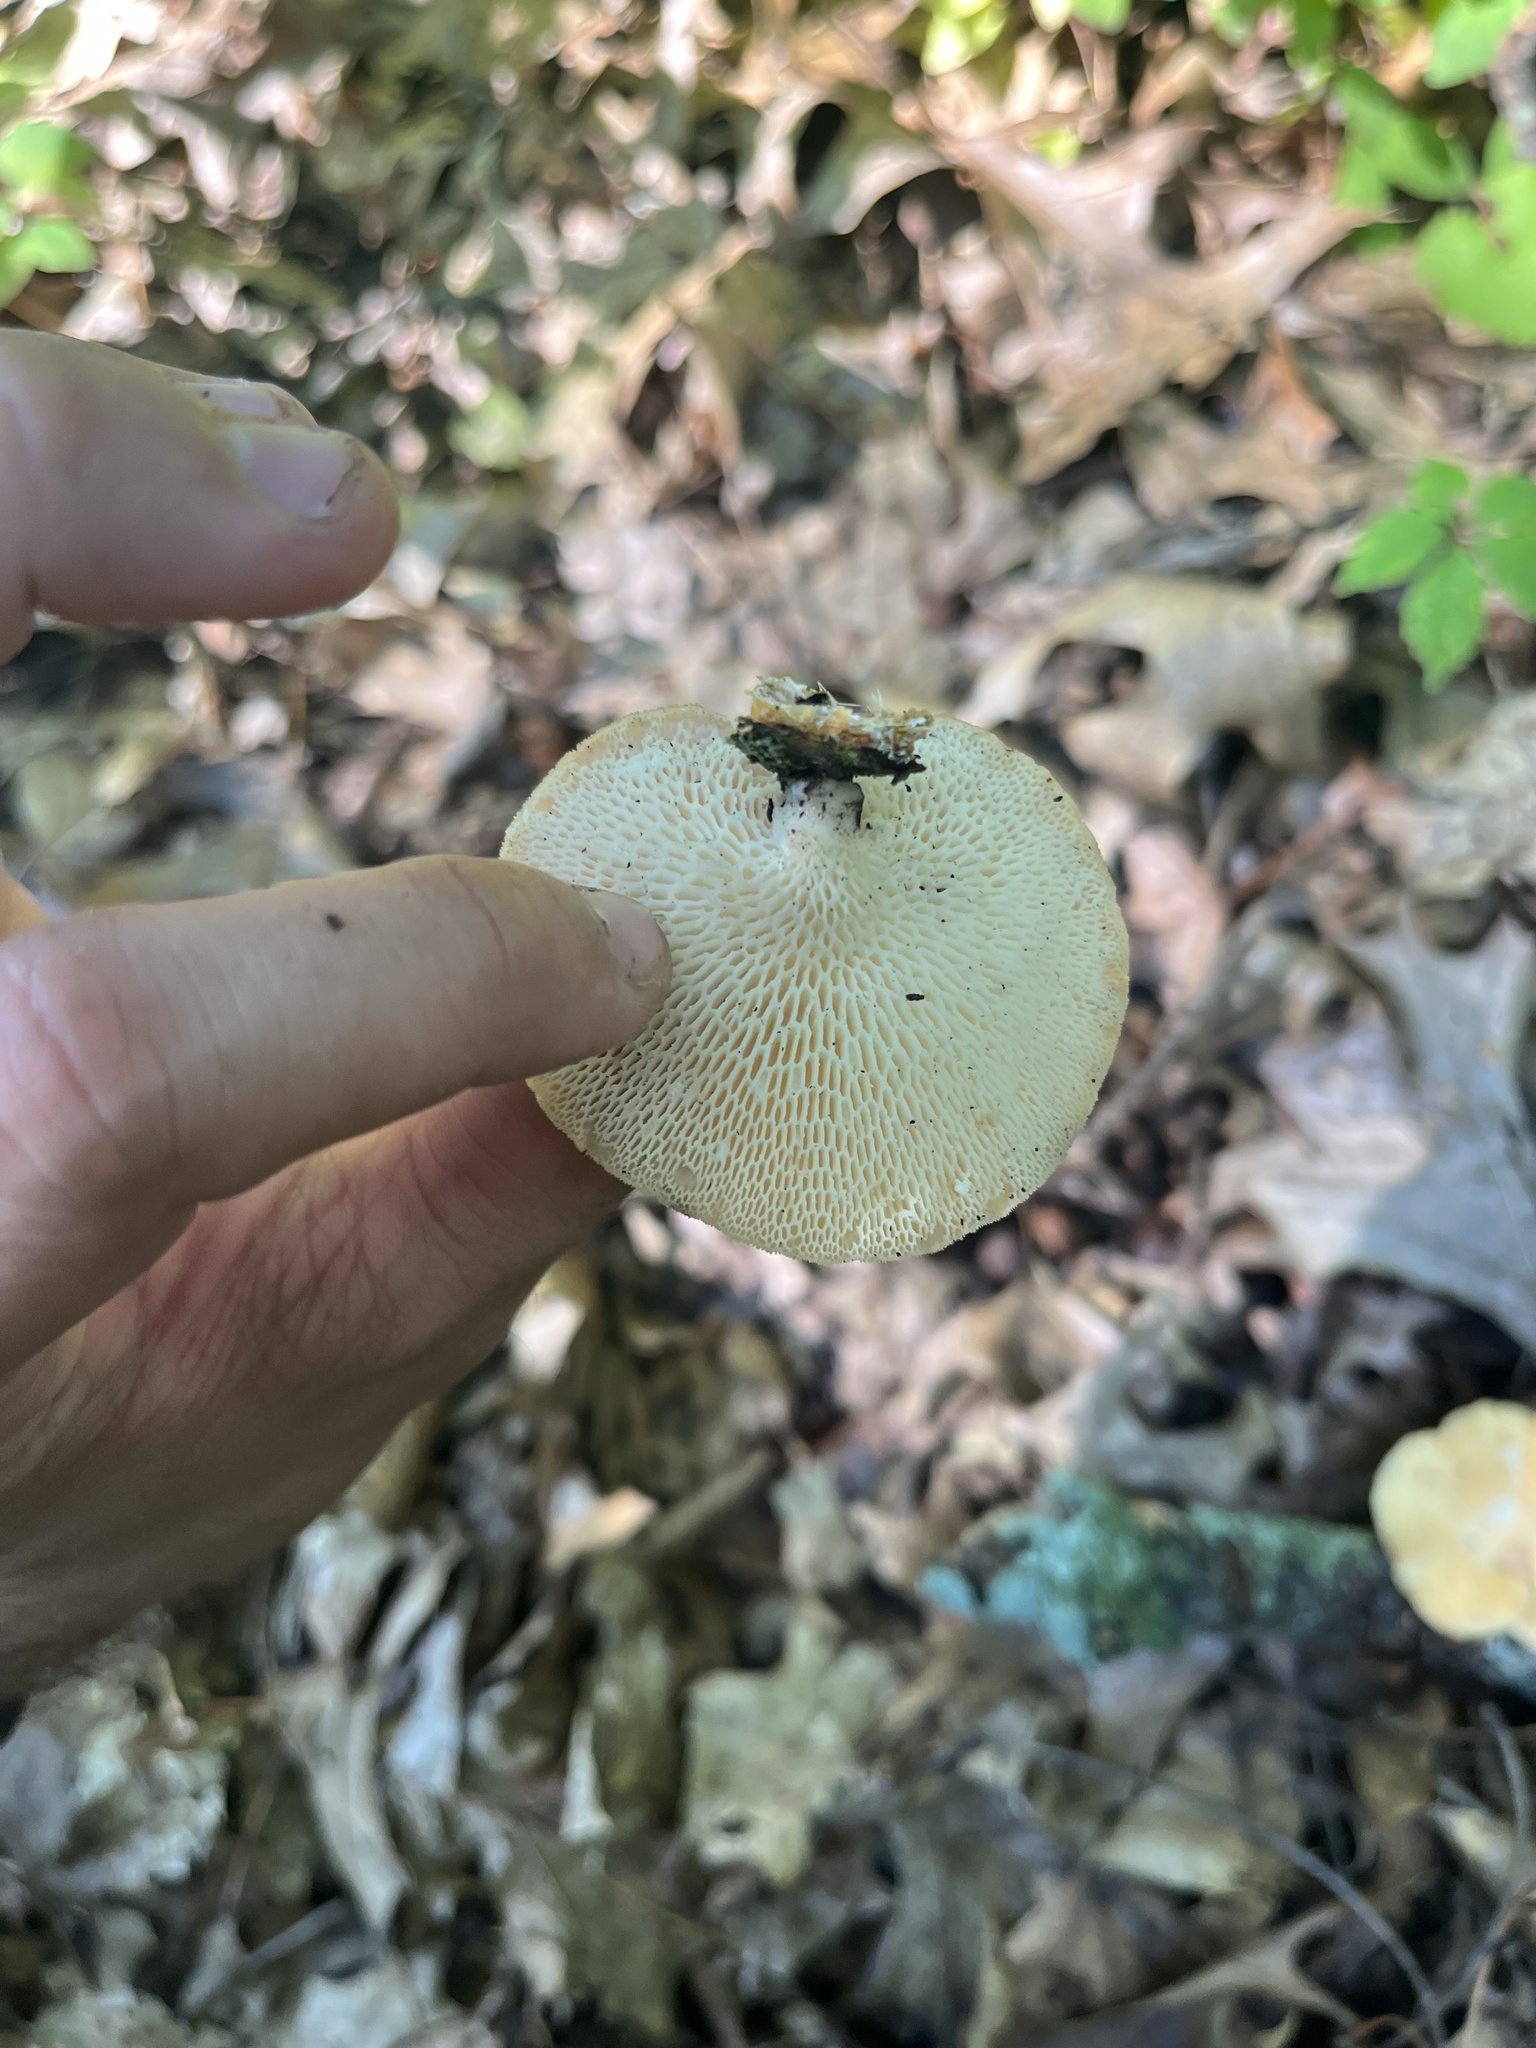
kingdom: Fungi
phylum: Basidiomycota
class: Agaricomycetes
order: Polyporales
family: Polyporaceae
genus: Neofavolus
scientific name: Neofavolus alveolaris
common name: Hexagonal-pored polypore
